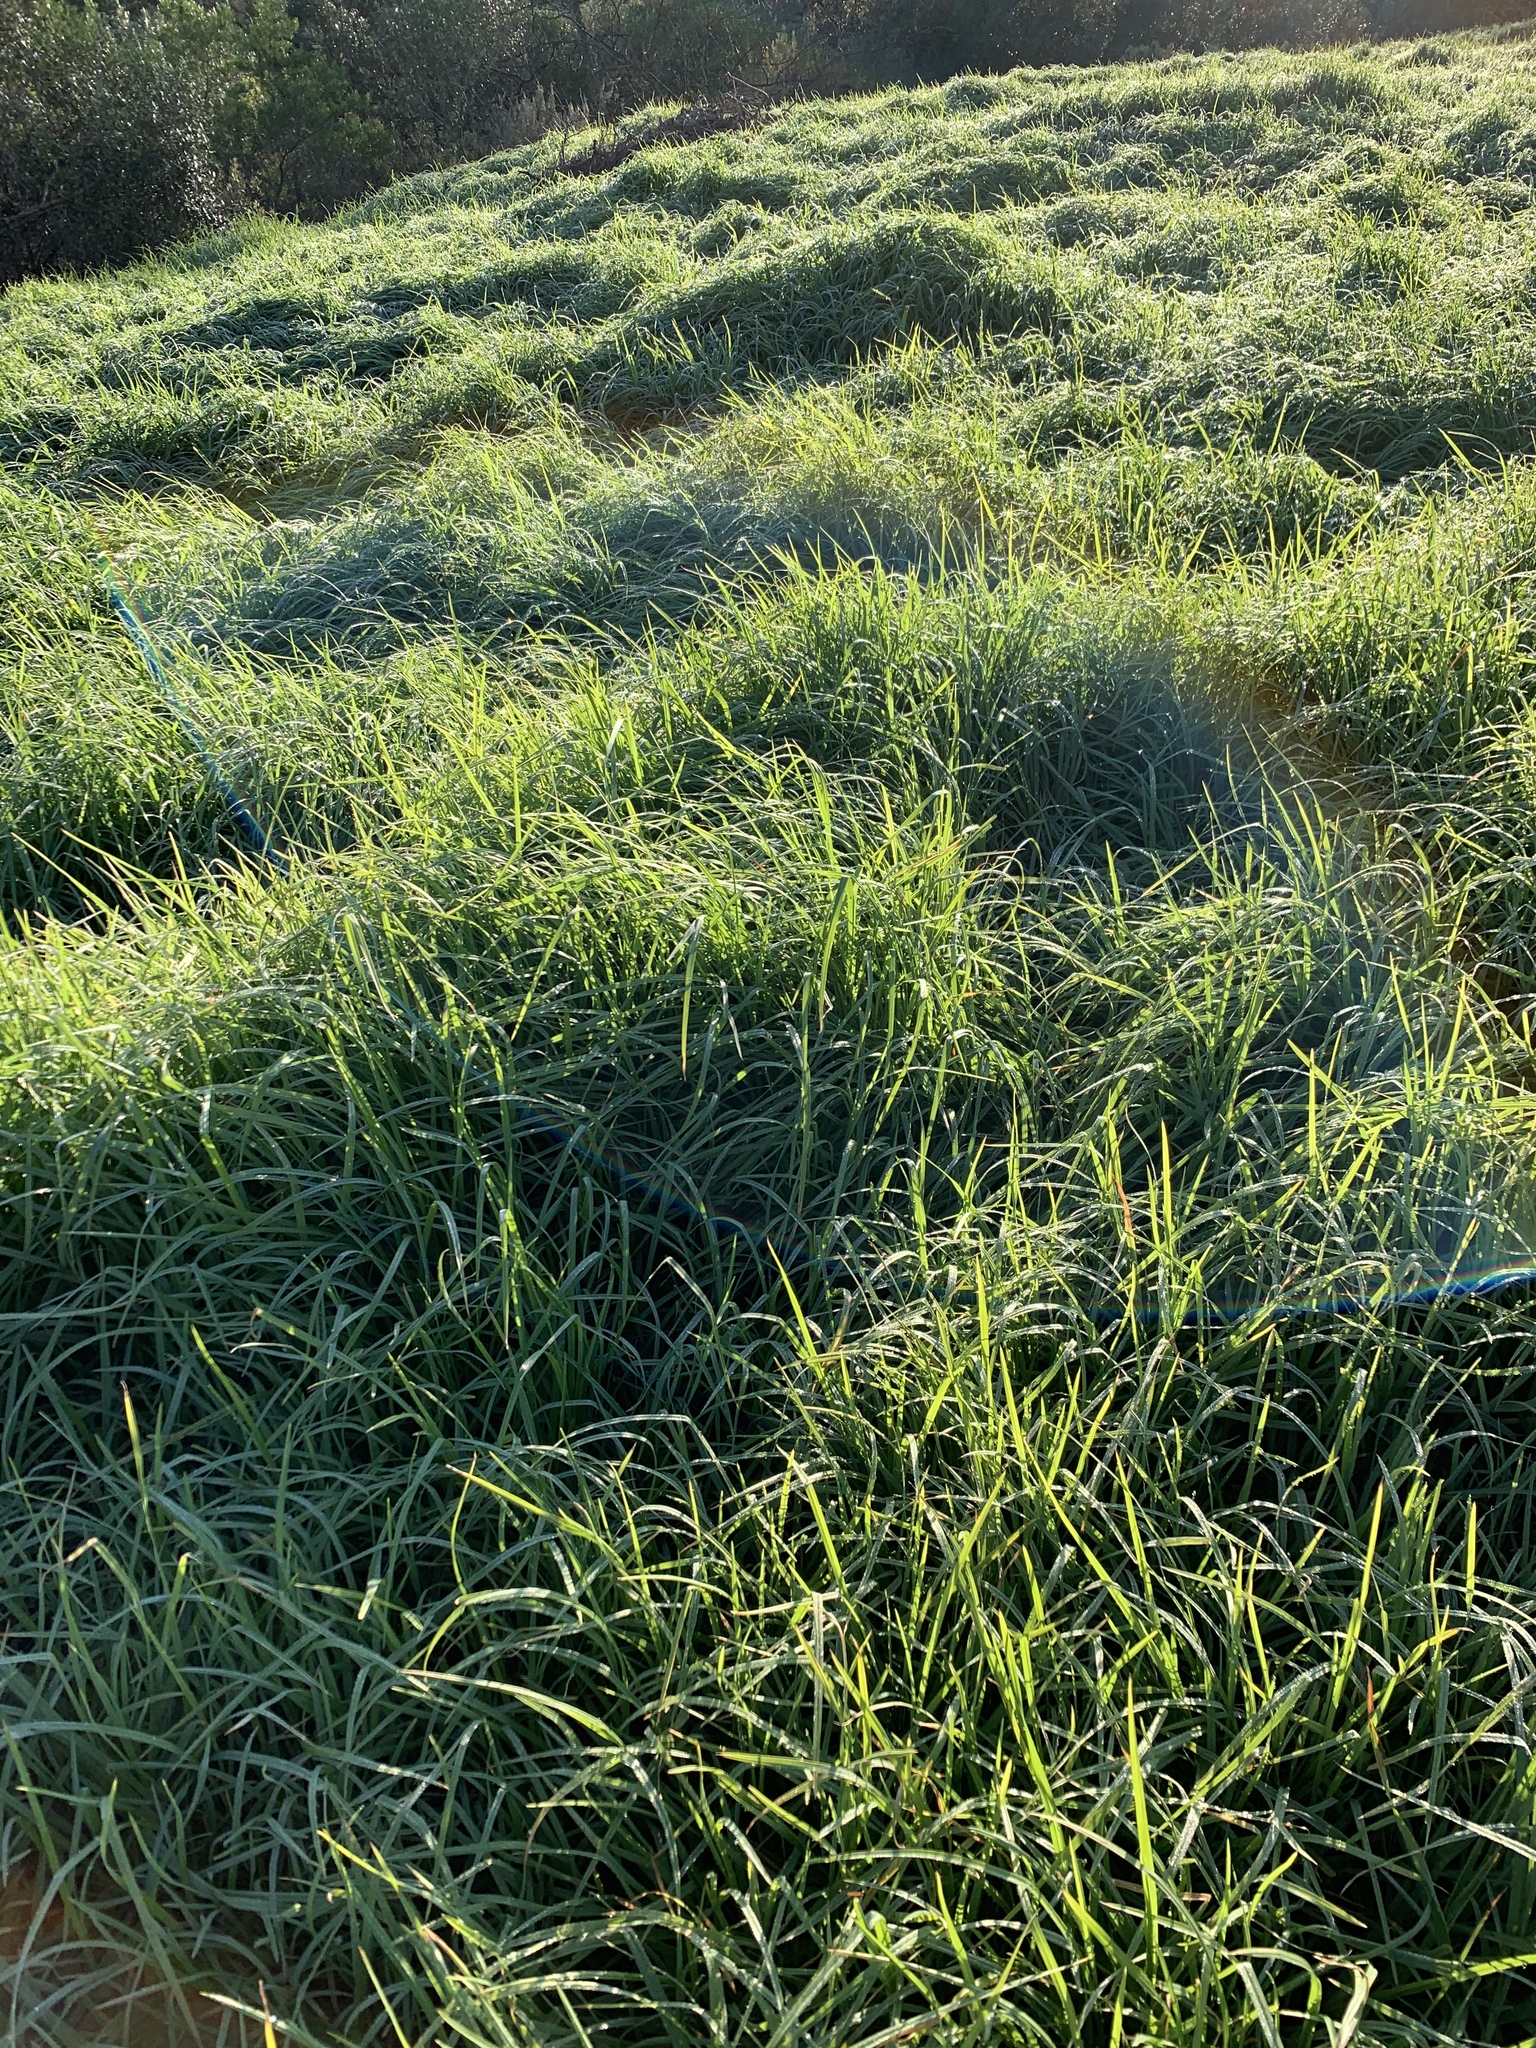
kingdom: Plantae
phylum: Tracheophyta
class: Liliopsida
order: Poales
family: Poaceae
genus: Cenchrus
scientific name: Cenchrus clandestinus
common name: Kikuyugrass
